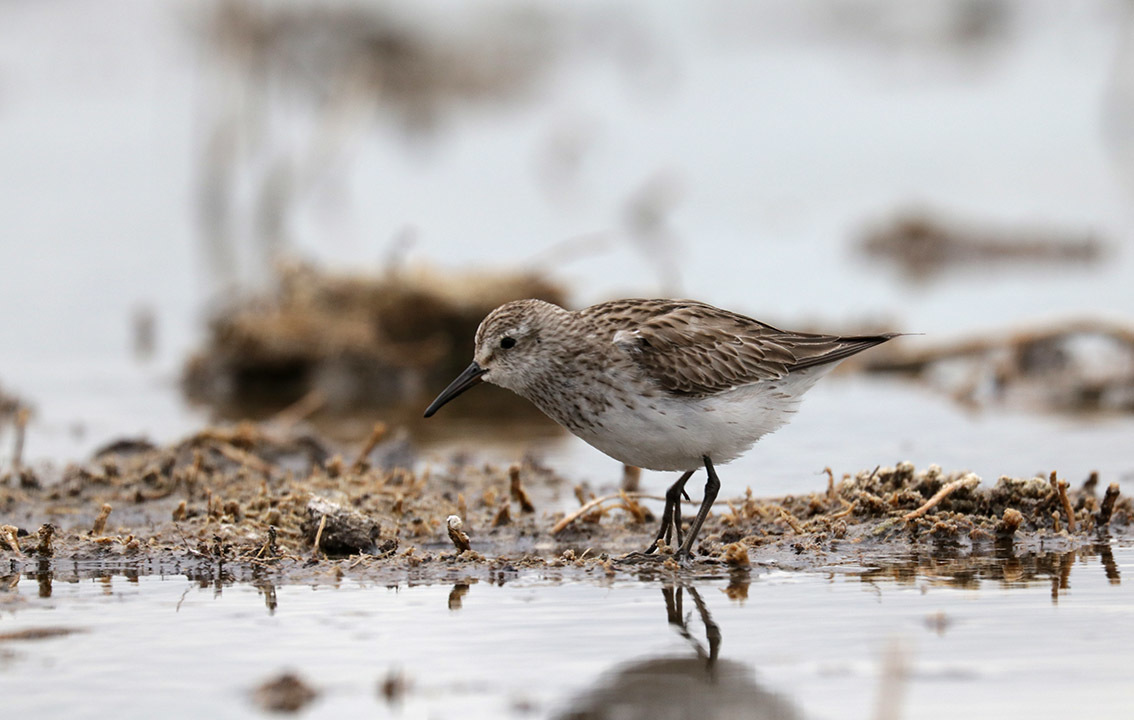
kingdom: Animalia
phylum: Chordata
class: Aves
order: Charadriiformes
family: Scolopacidae
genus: Calidris
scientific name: Calidris fuscicollis
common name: White-rumped sandpiper
